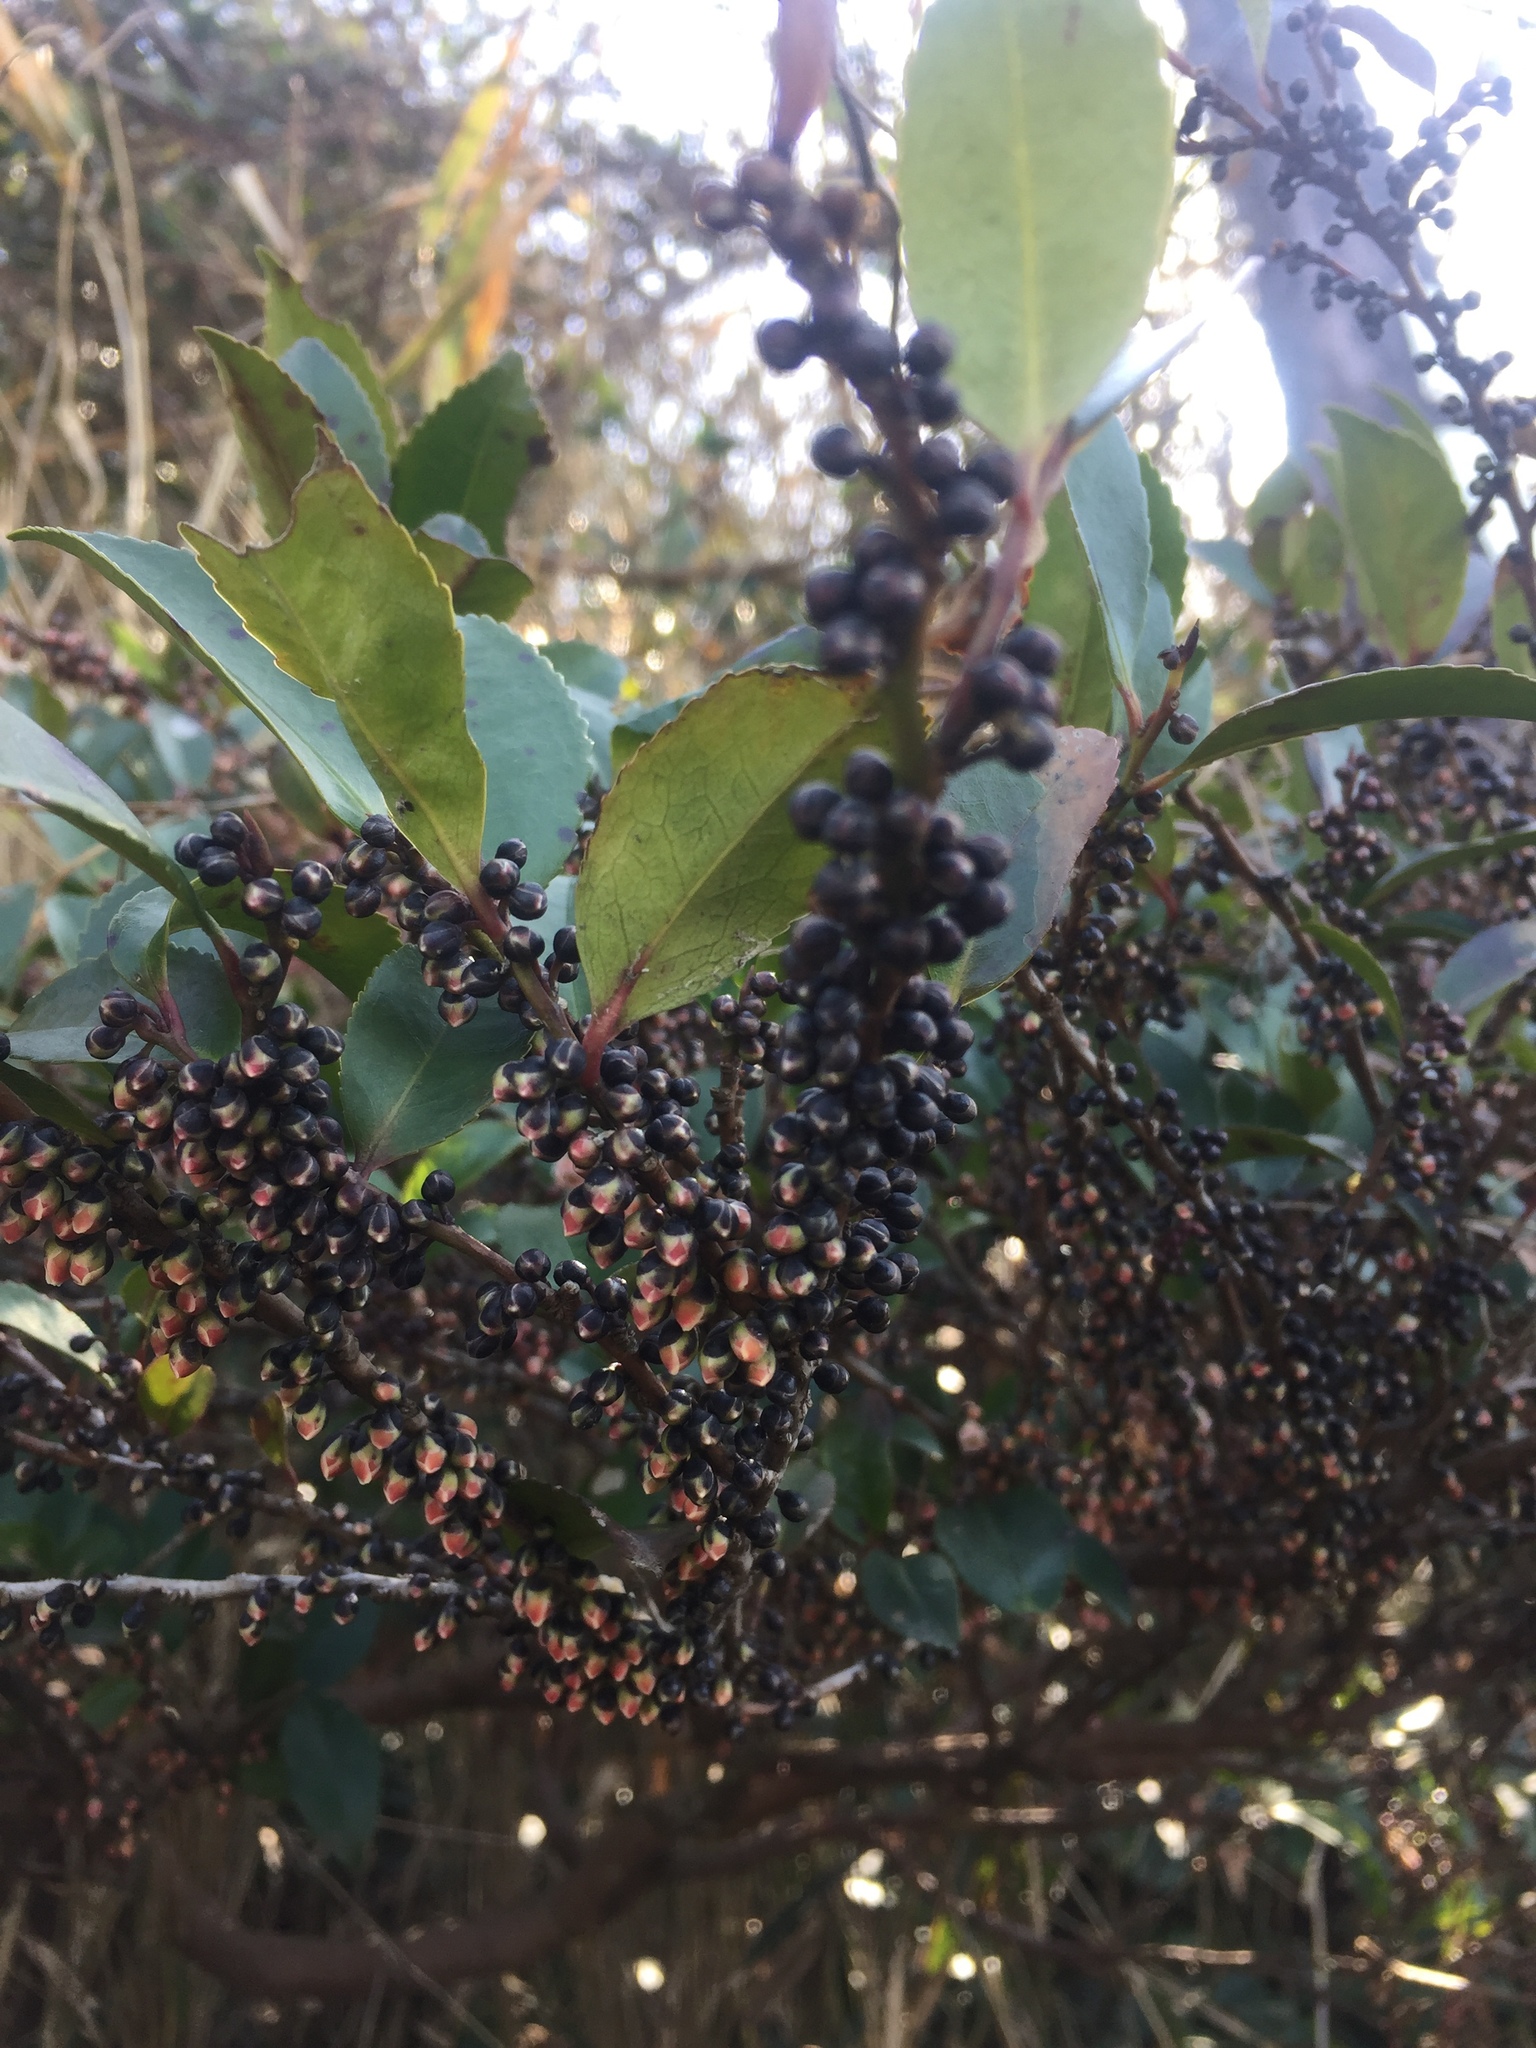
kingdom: Plantae
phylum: Tracheophyta
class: Magnoliopsida
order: Ericales
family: Pentaphylacaceae
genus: Eurya
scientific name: Eurya japonica
